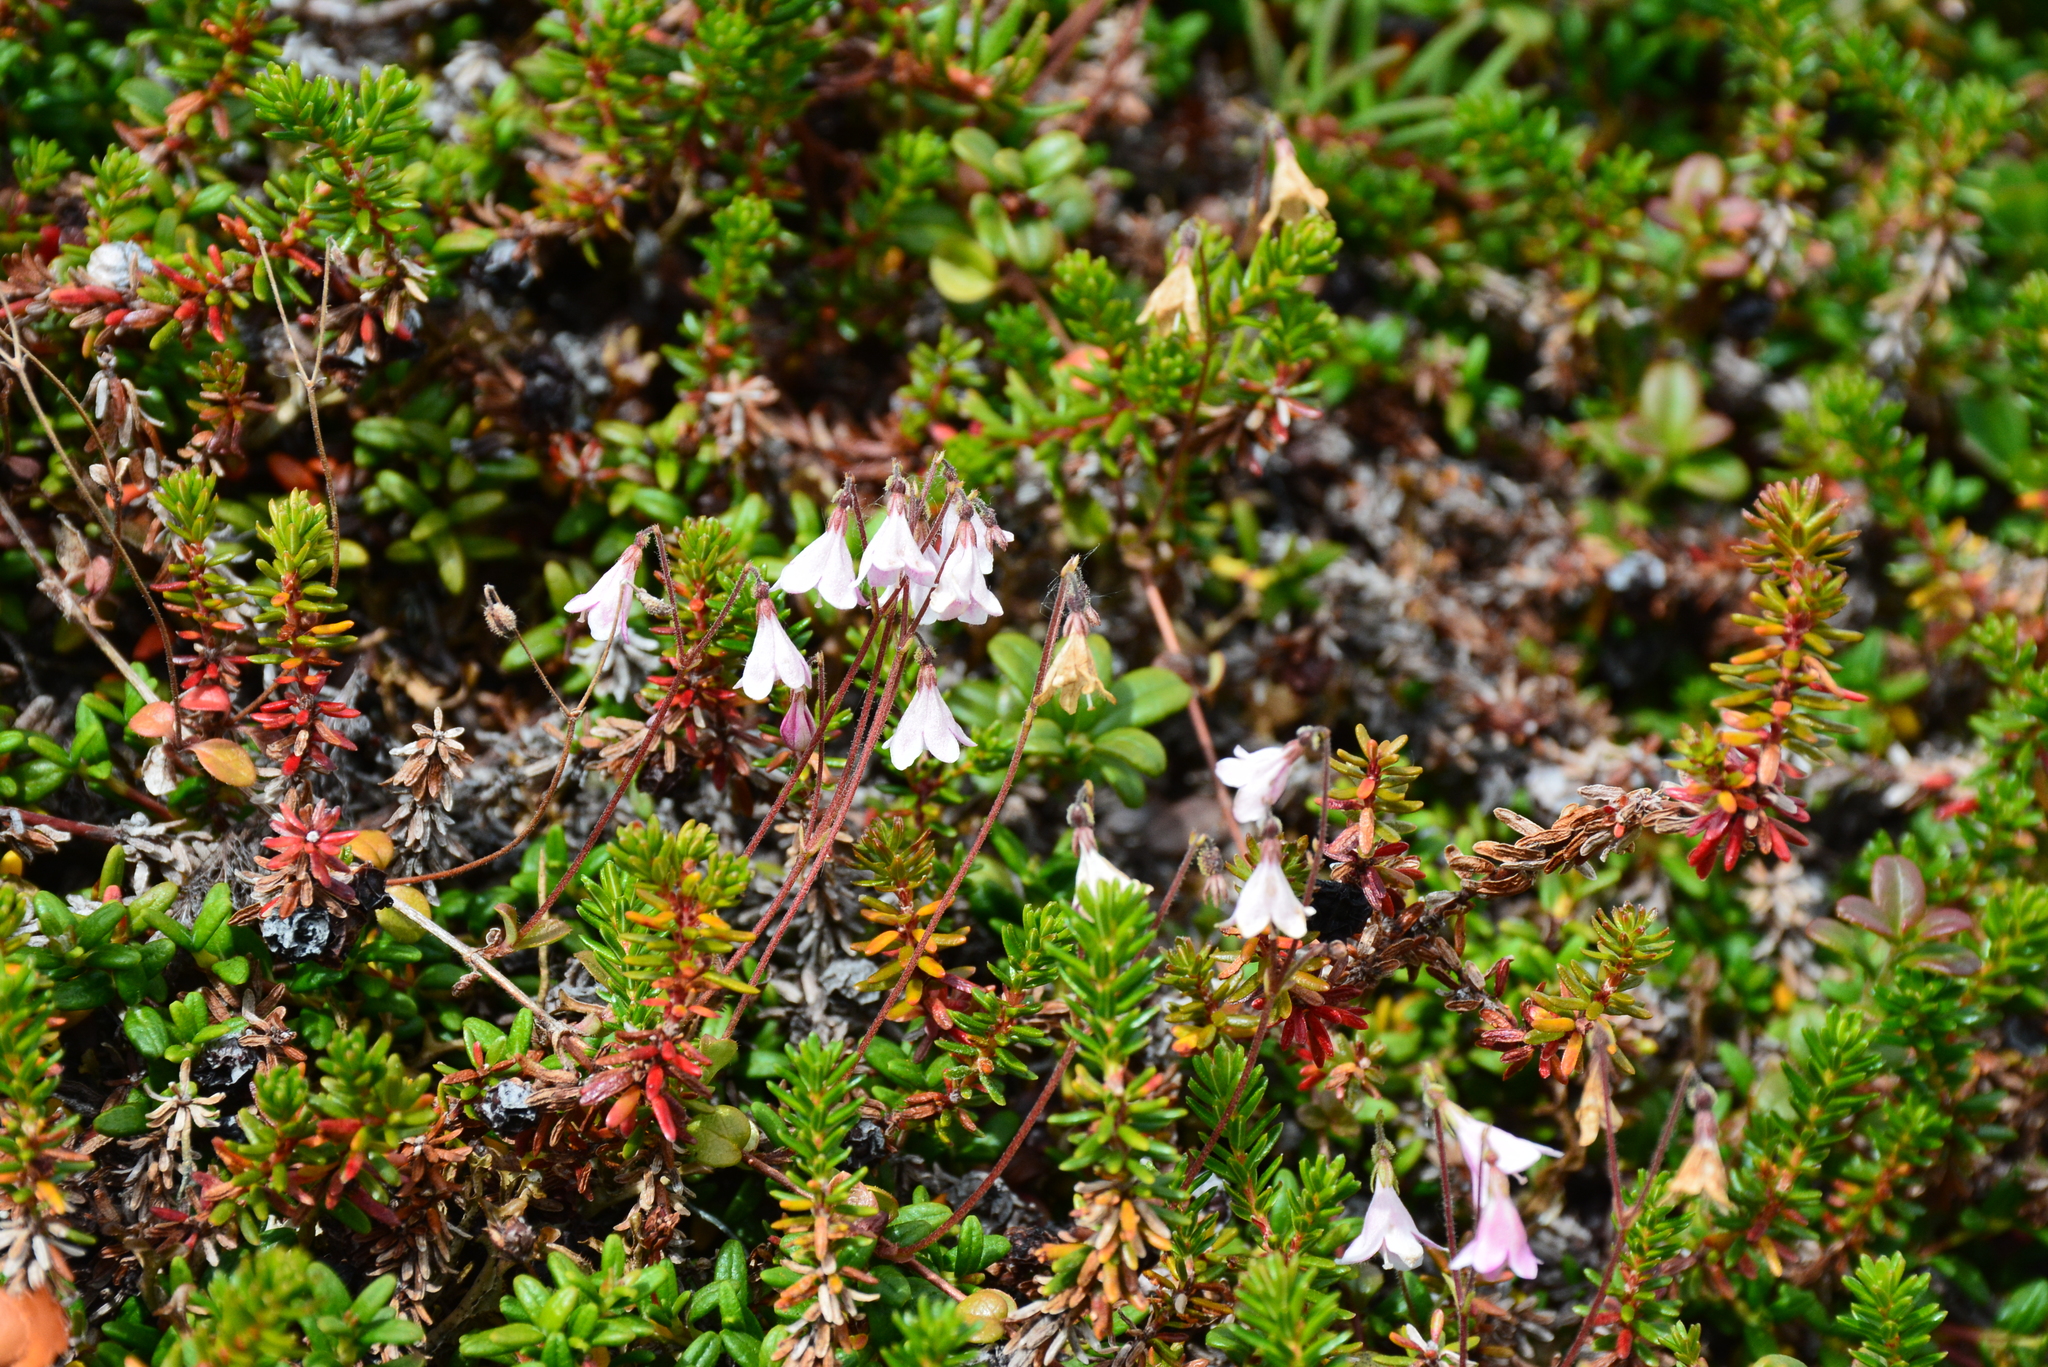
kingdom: Plantae
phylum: Tracheophyta
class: Magnoliopsida
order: Dipsacales
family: Caprifoliaceae
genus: Linnaea
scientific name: Linnaea borealis
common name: Twinflower
